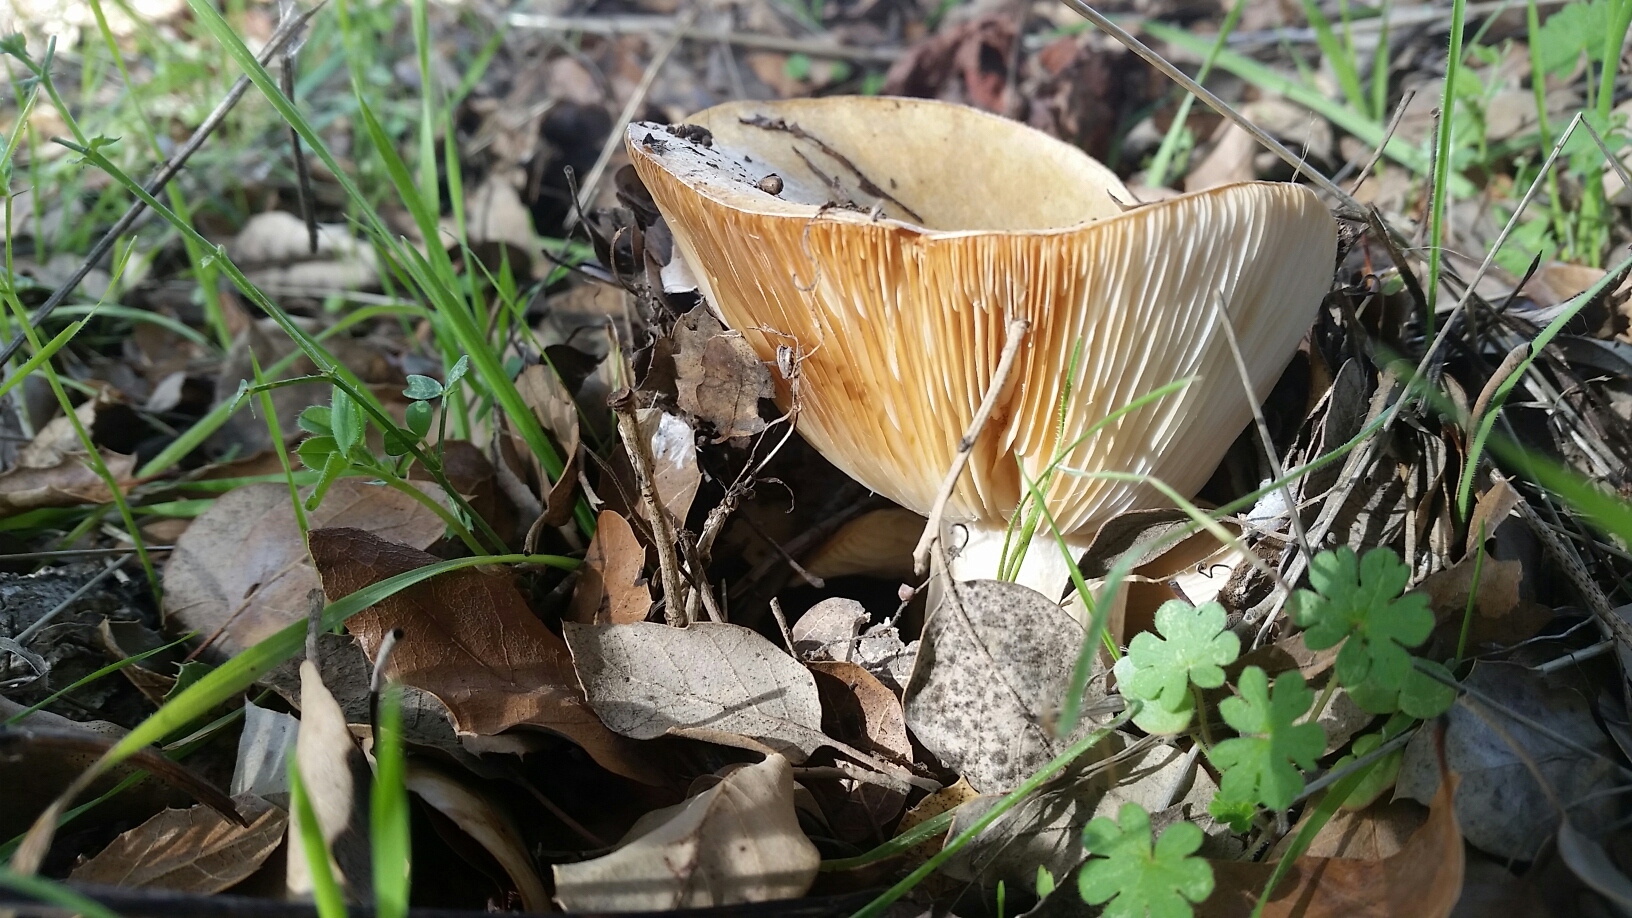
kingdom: Fungi
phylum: Basidiomycota
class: Agaricomycetes
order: Russulales
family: Russulaceae
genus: Lactarius
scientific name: Lactarius alnicola
